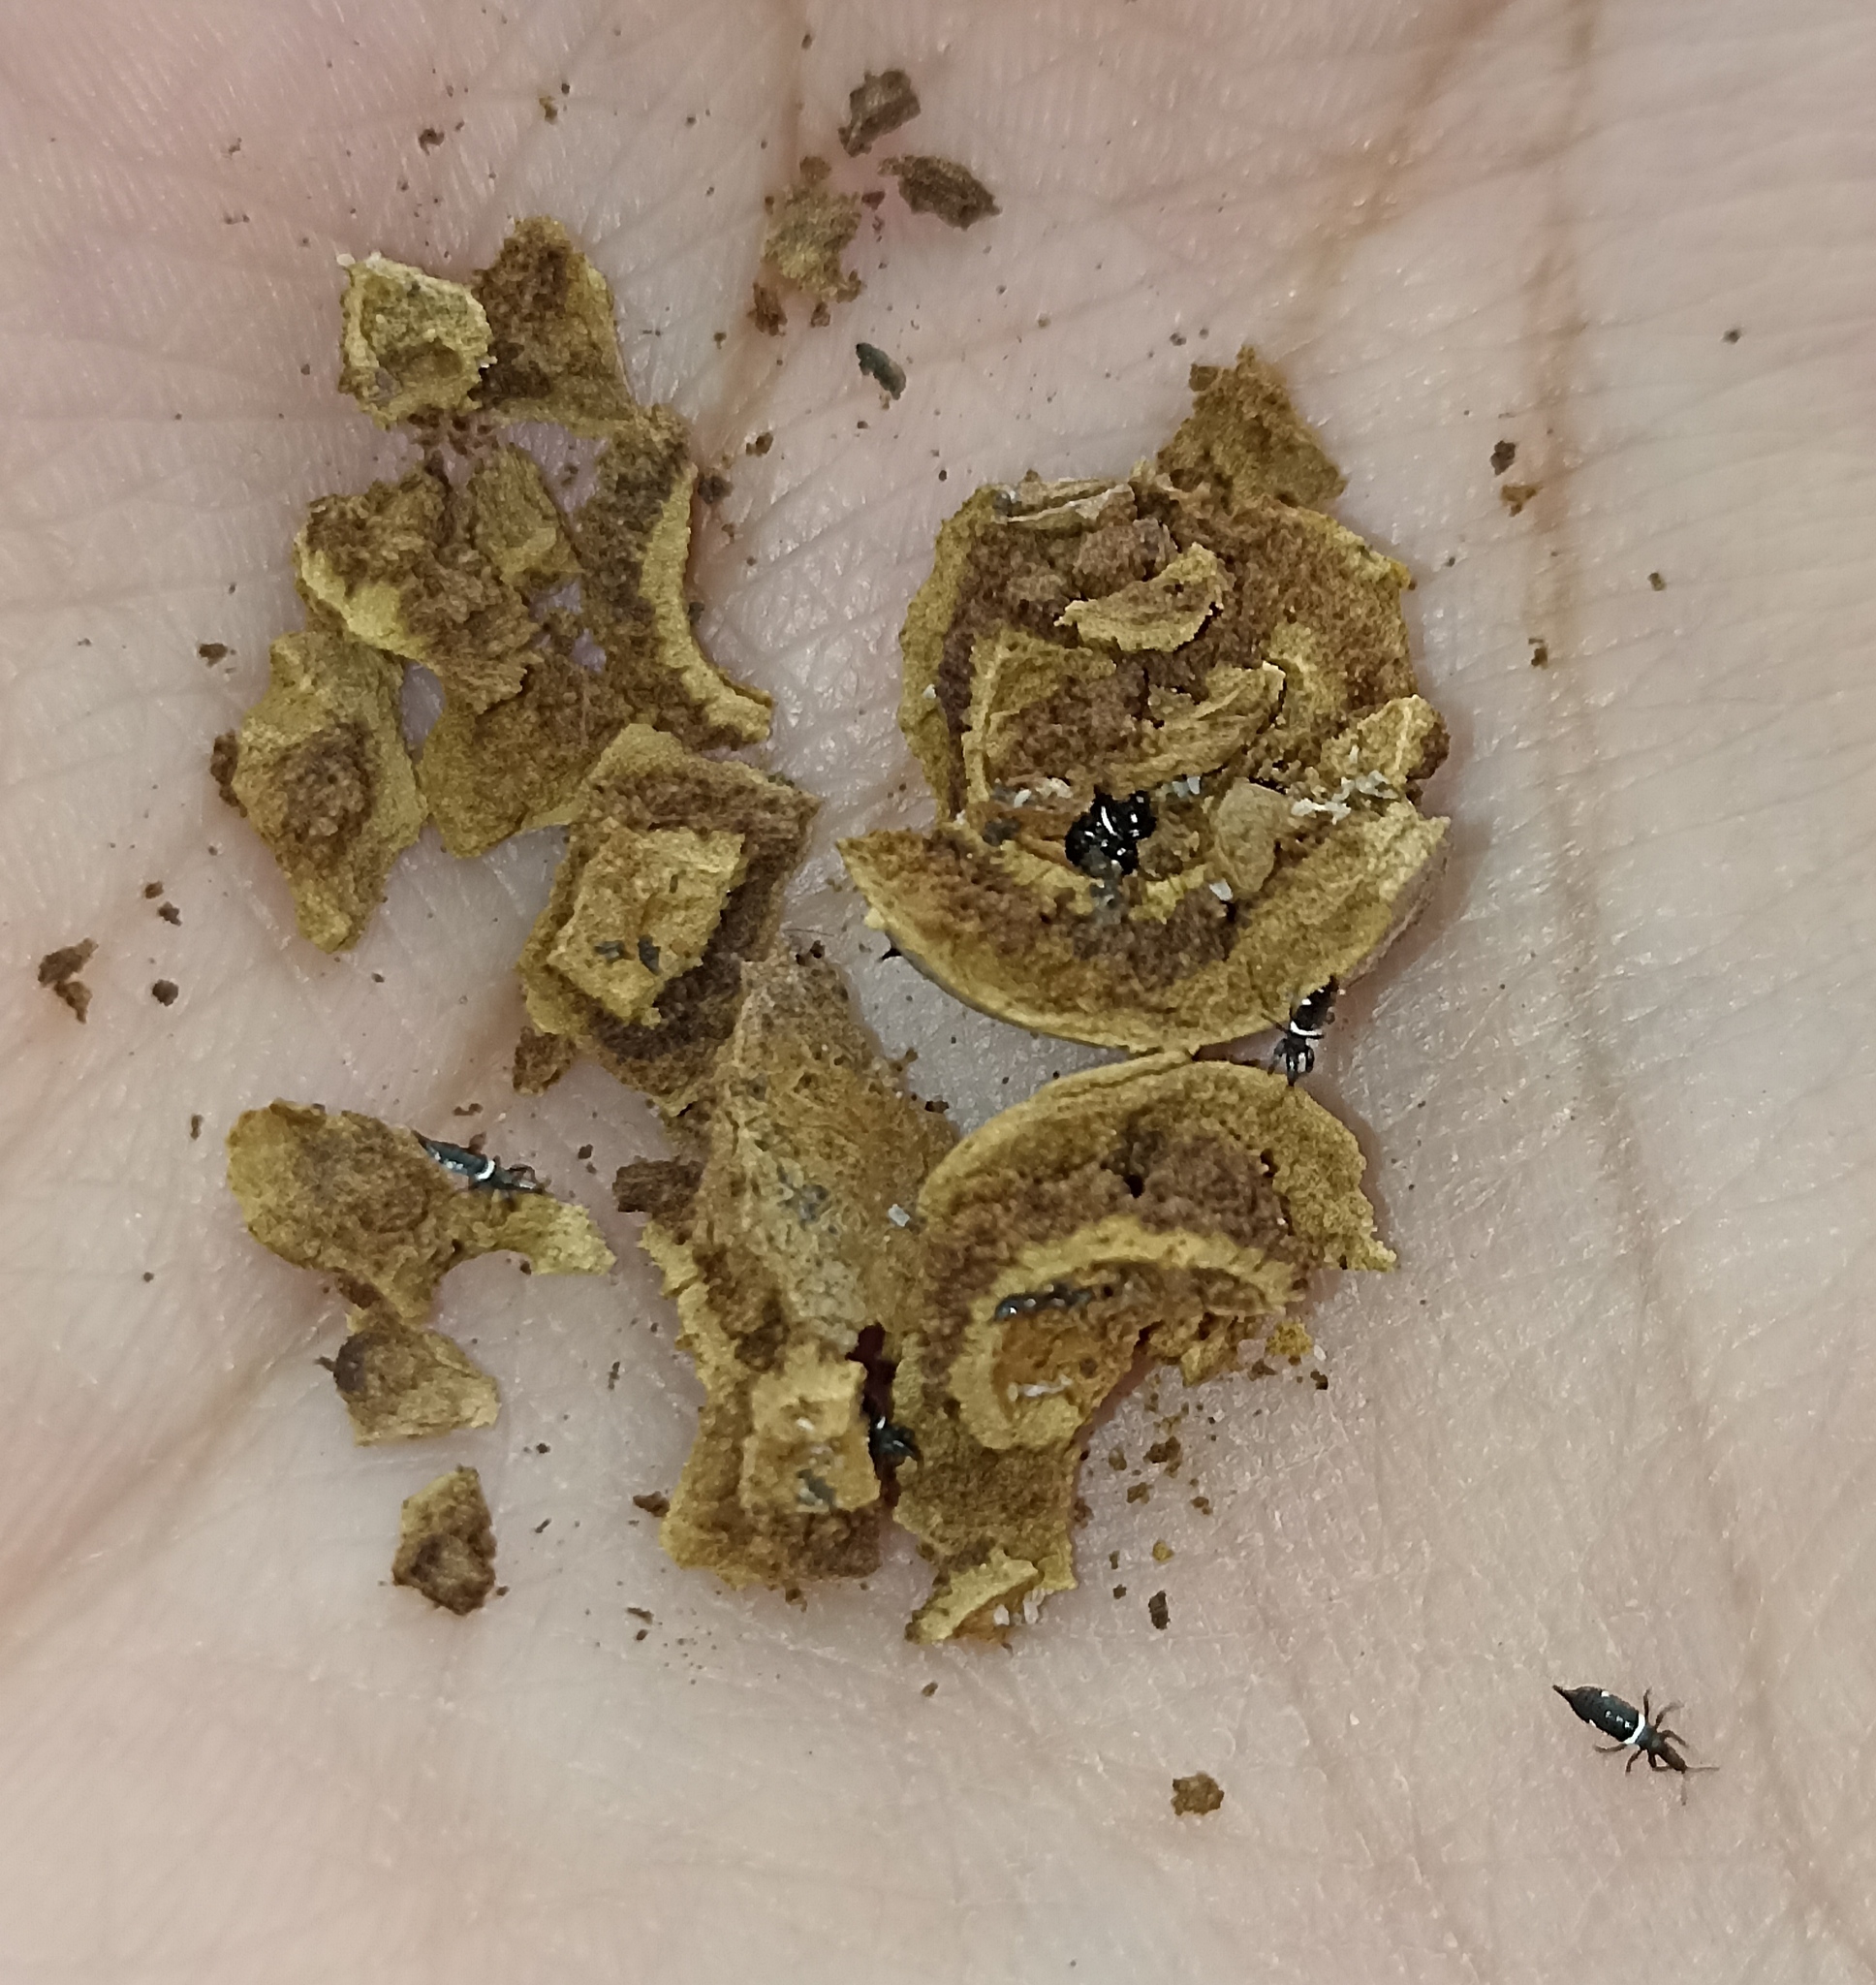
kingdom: Animalia
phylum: Arthropoda
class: Insecta
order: Thysanoptera
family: Phlaeothripidae
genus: Compsothrips
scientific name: Compsothrips albosignatus
